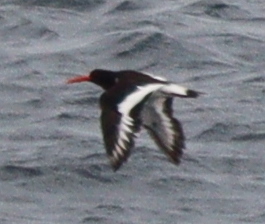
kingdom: Animalia
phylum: Chordata
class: Aves
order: Charadriiformes
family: Haematopodidae
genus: Haematopus
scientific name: Haematopus ostralegus
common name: Eurasian oystercatcher
